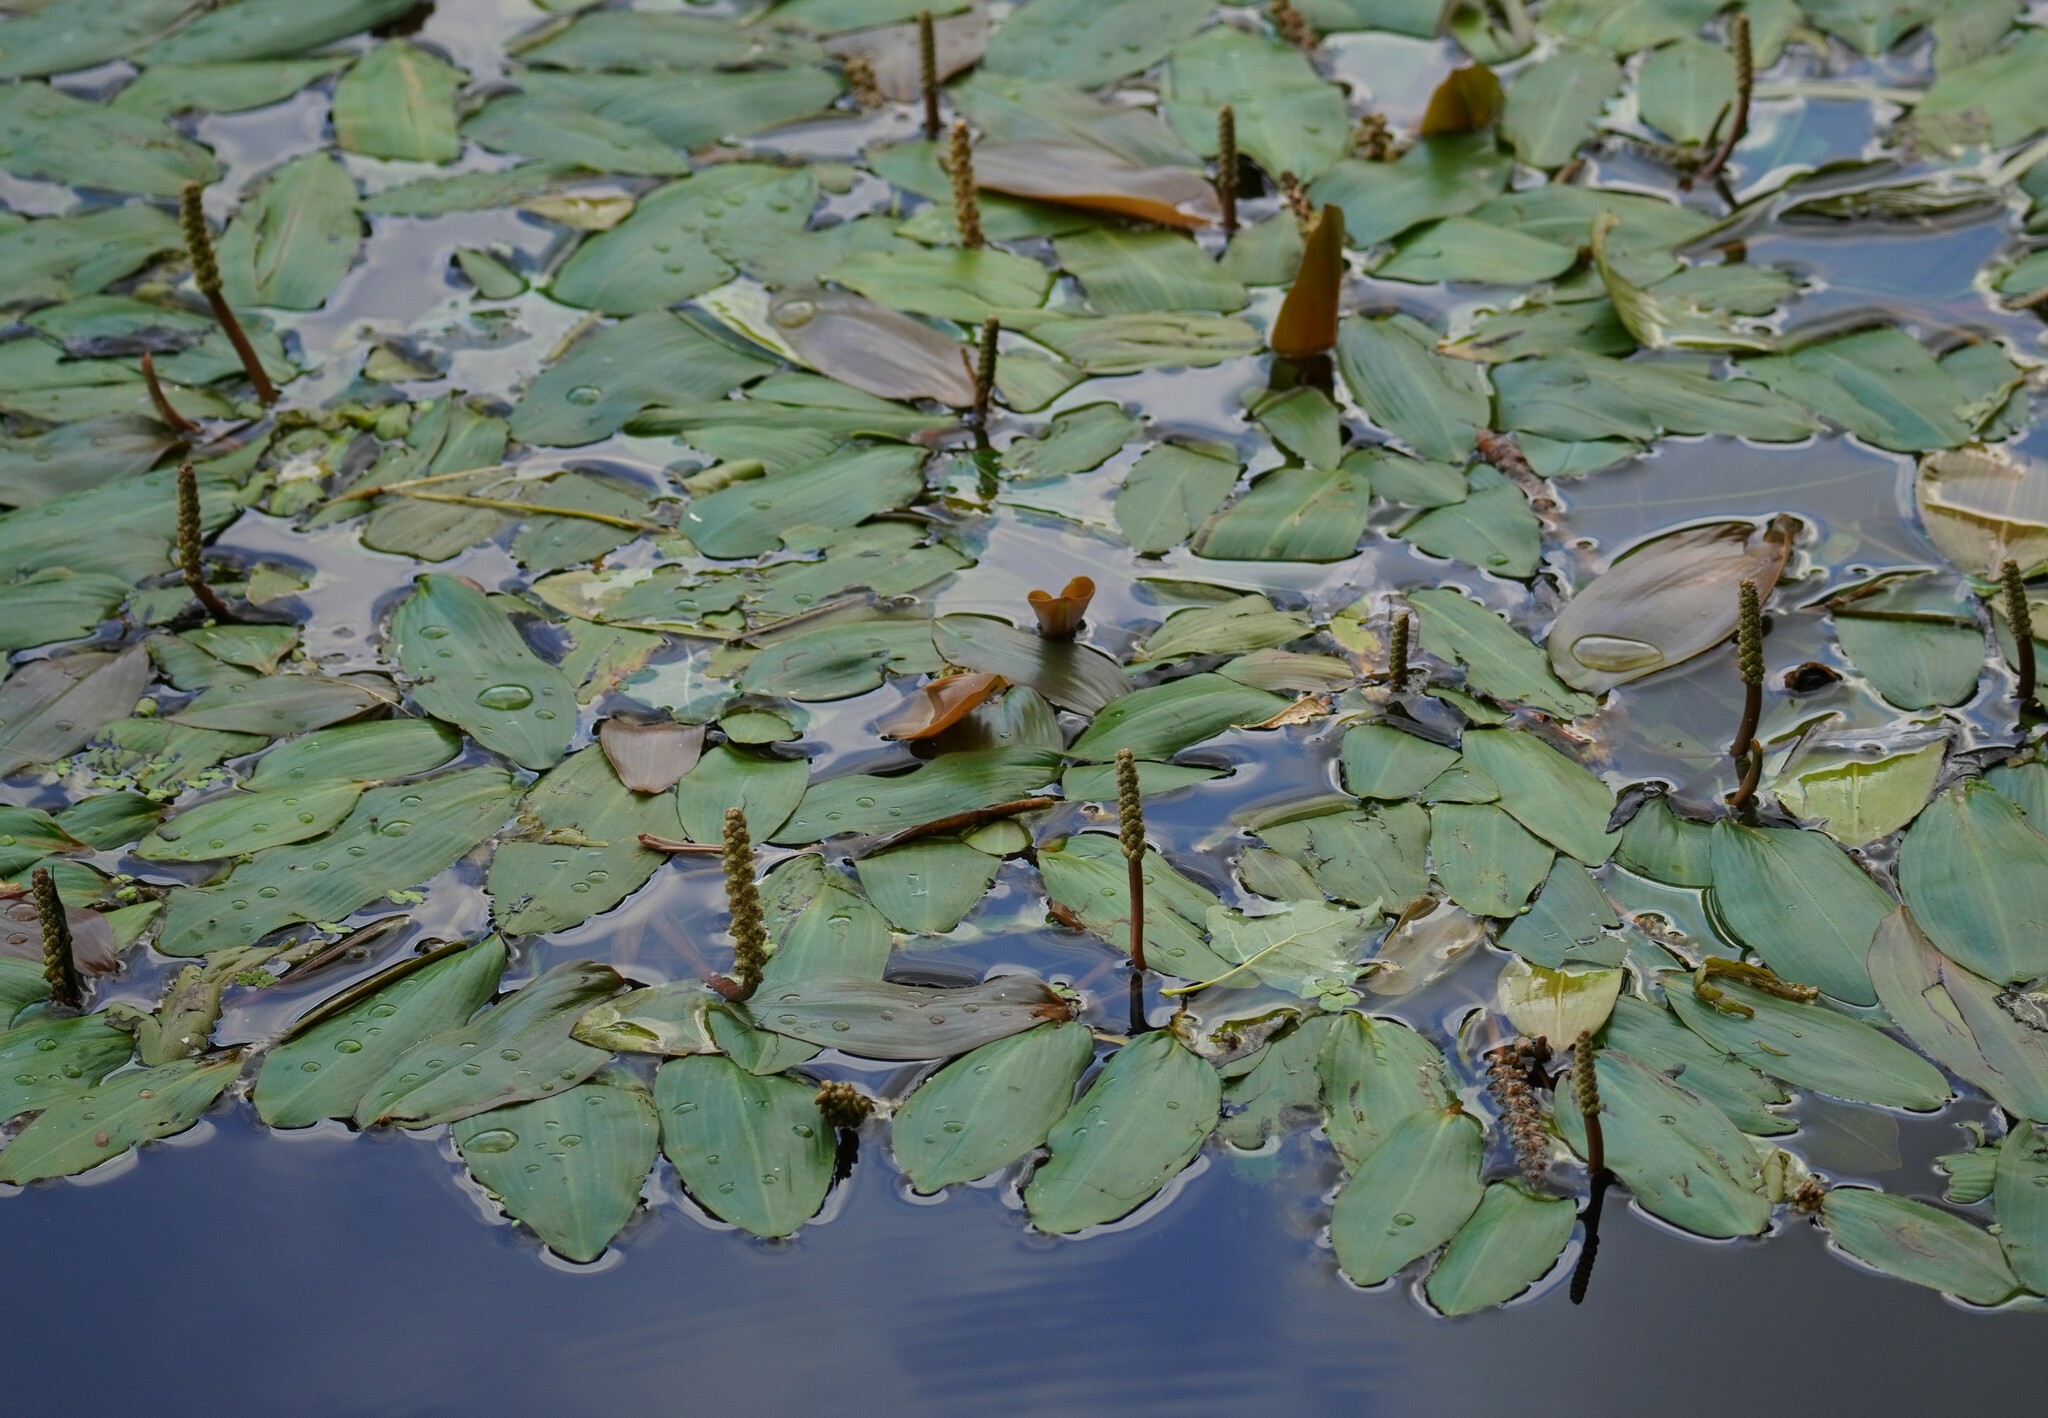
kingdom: Plantae
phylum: Tracheophyta
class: Liliopsida
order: Alismatales
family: Potamogetonaceae
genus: Potamogeton
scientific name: Potamogeton natans
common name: Broad-leaved pondweed
